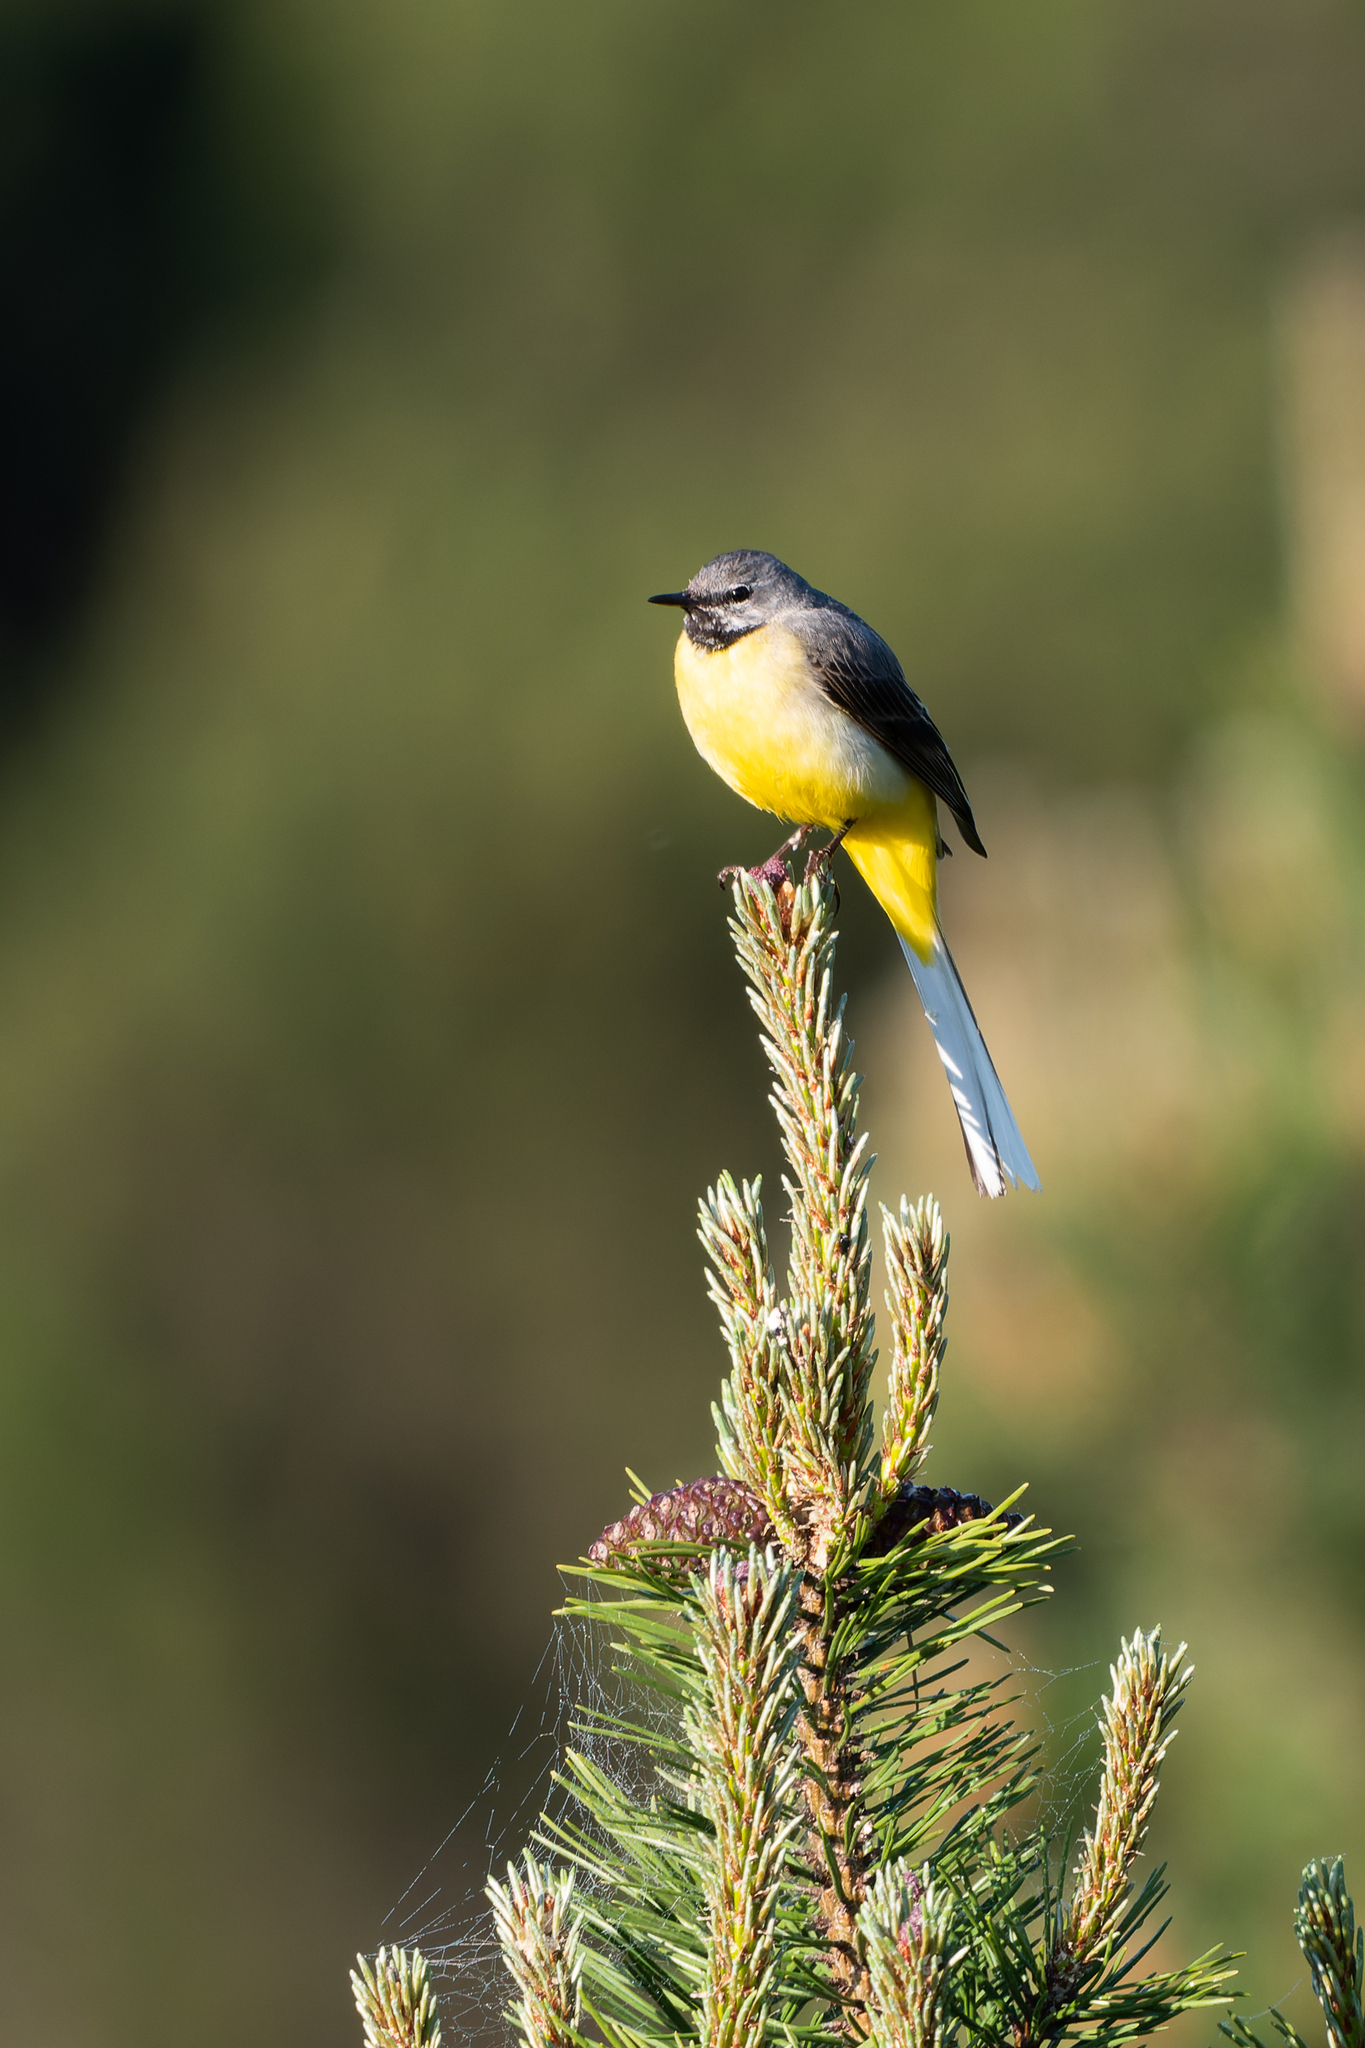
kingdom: Animalia
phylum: Chordata
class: Aves
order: Passeriformes
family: Motacillidae
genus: Motacilla
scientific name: Motacilla cinerea
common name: Grey wagtail
